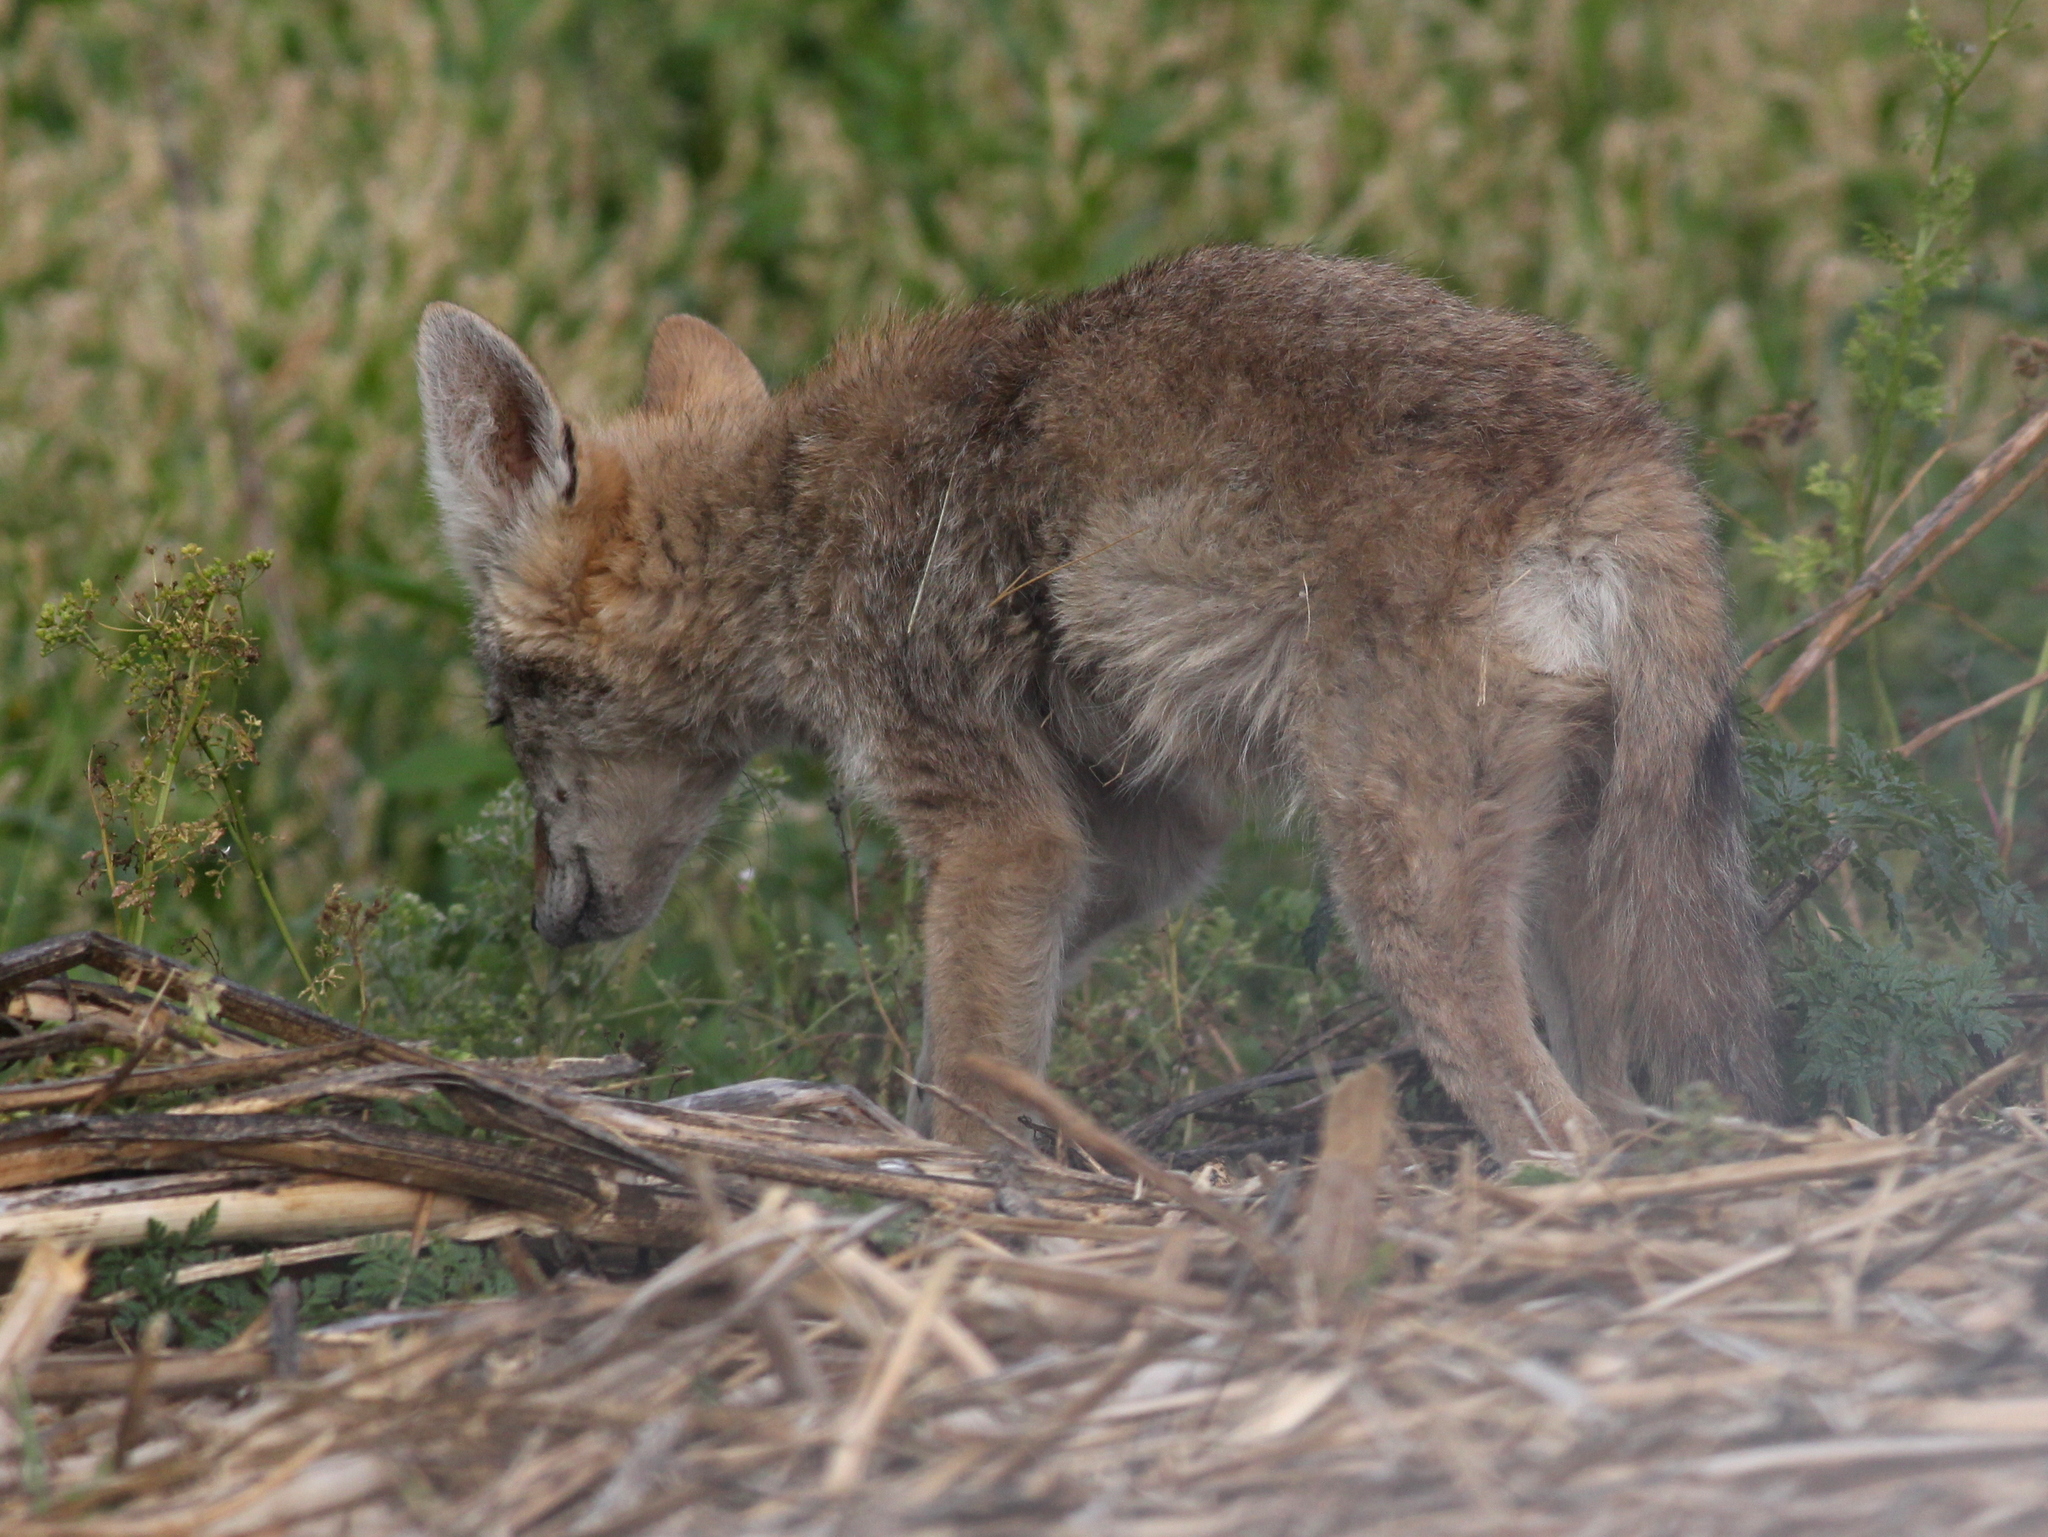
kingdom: Animalia
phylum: Chordata
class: Mammalia
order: Carnivora
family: Canidae
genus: Canis
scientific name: Canis latrans
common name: Coyote
